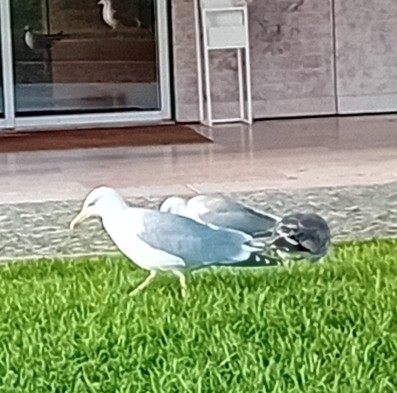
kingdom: Animalia
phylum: Chordata
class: Aves
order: Charadriiformes
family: Laridae
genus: Larus
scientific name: Larus michahellis
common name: Yellow-legged gull
